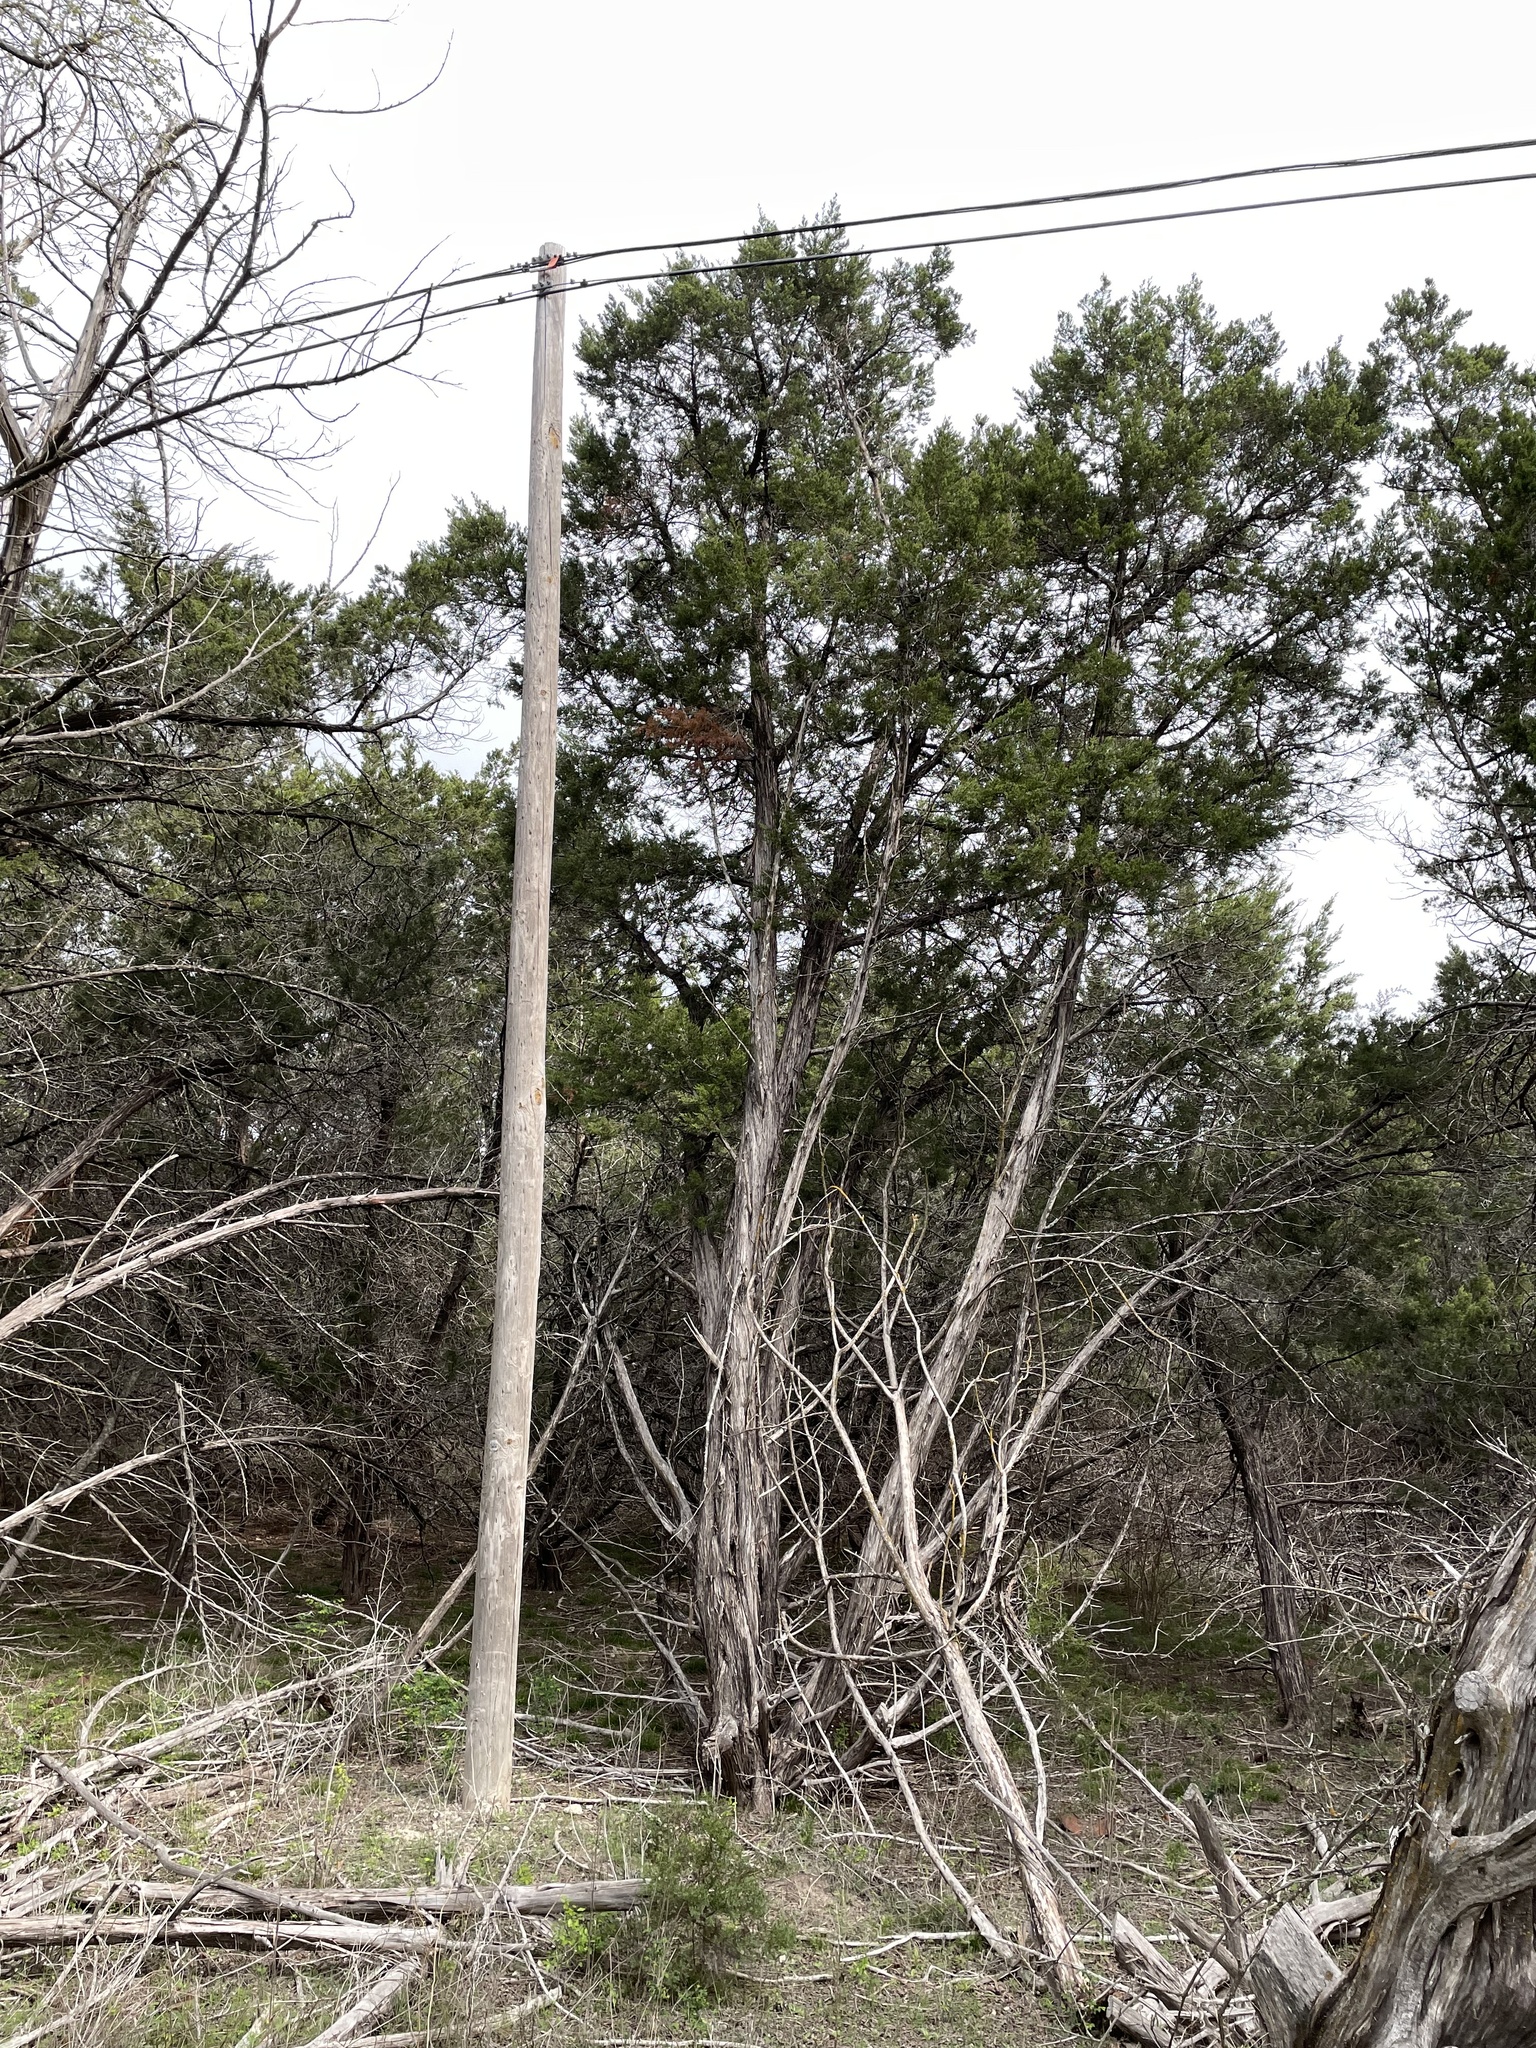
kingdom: Plantae
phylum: Tracheophyta
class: Pinopsida
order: Pinales
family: Cupressaceae
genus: Juniperus
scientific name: Juniperus ashei
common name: Mexican juniper
